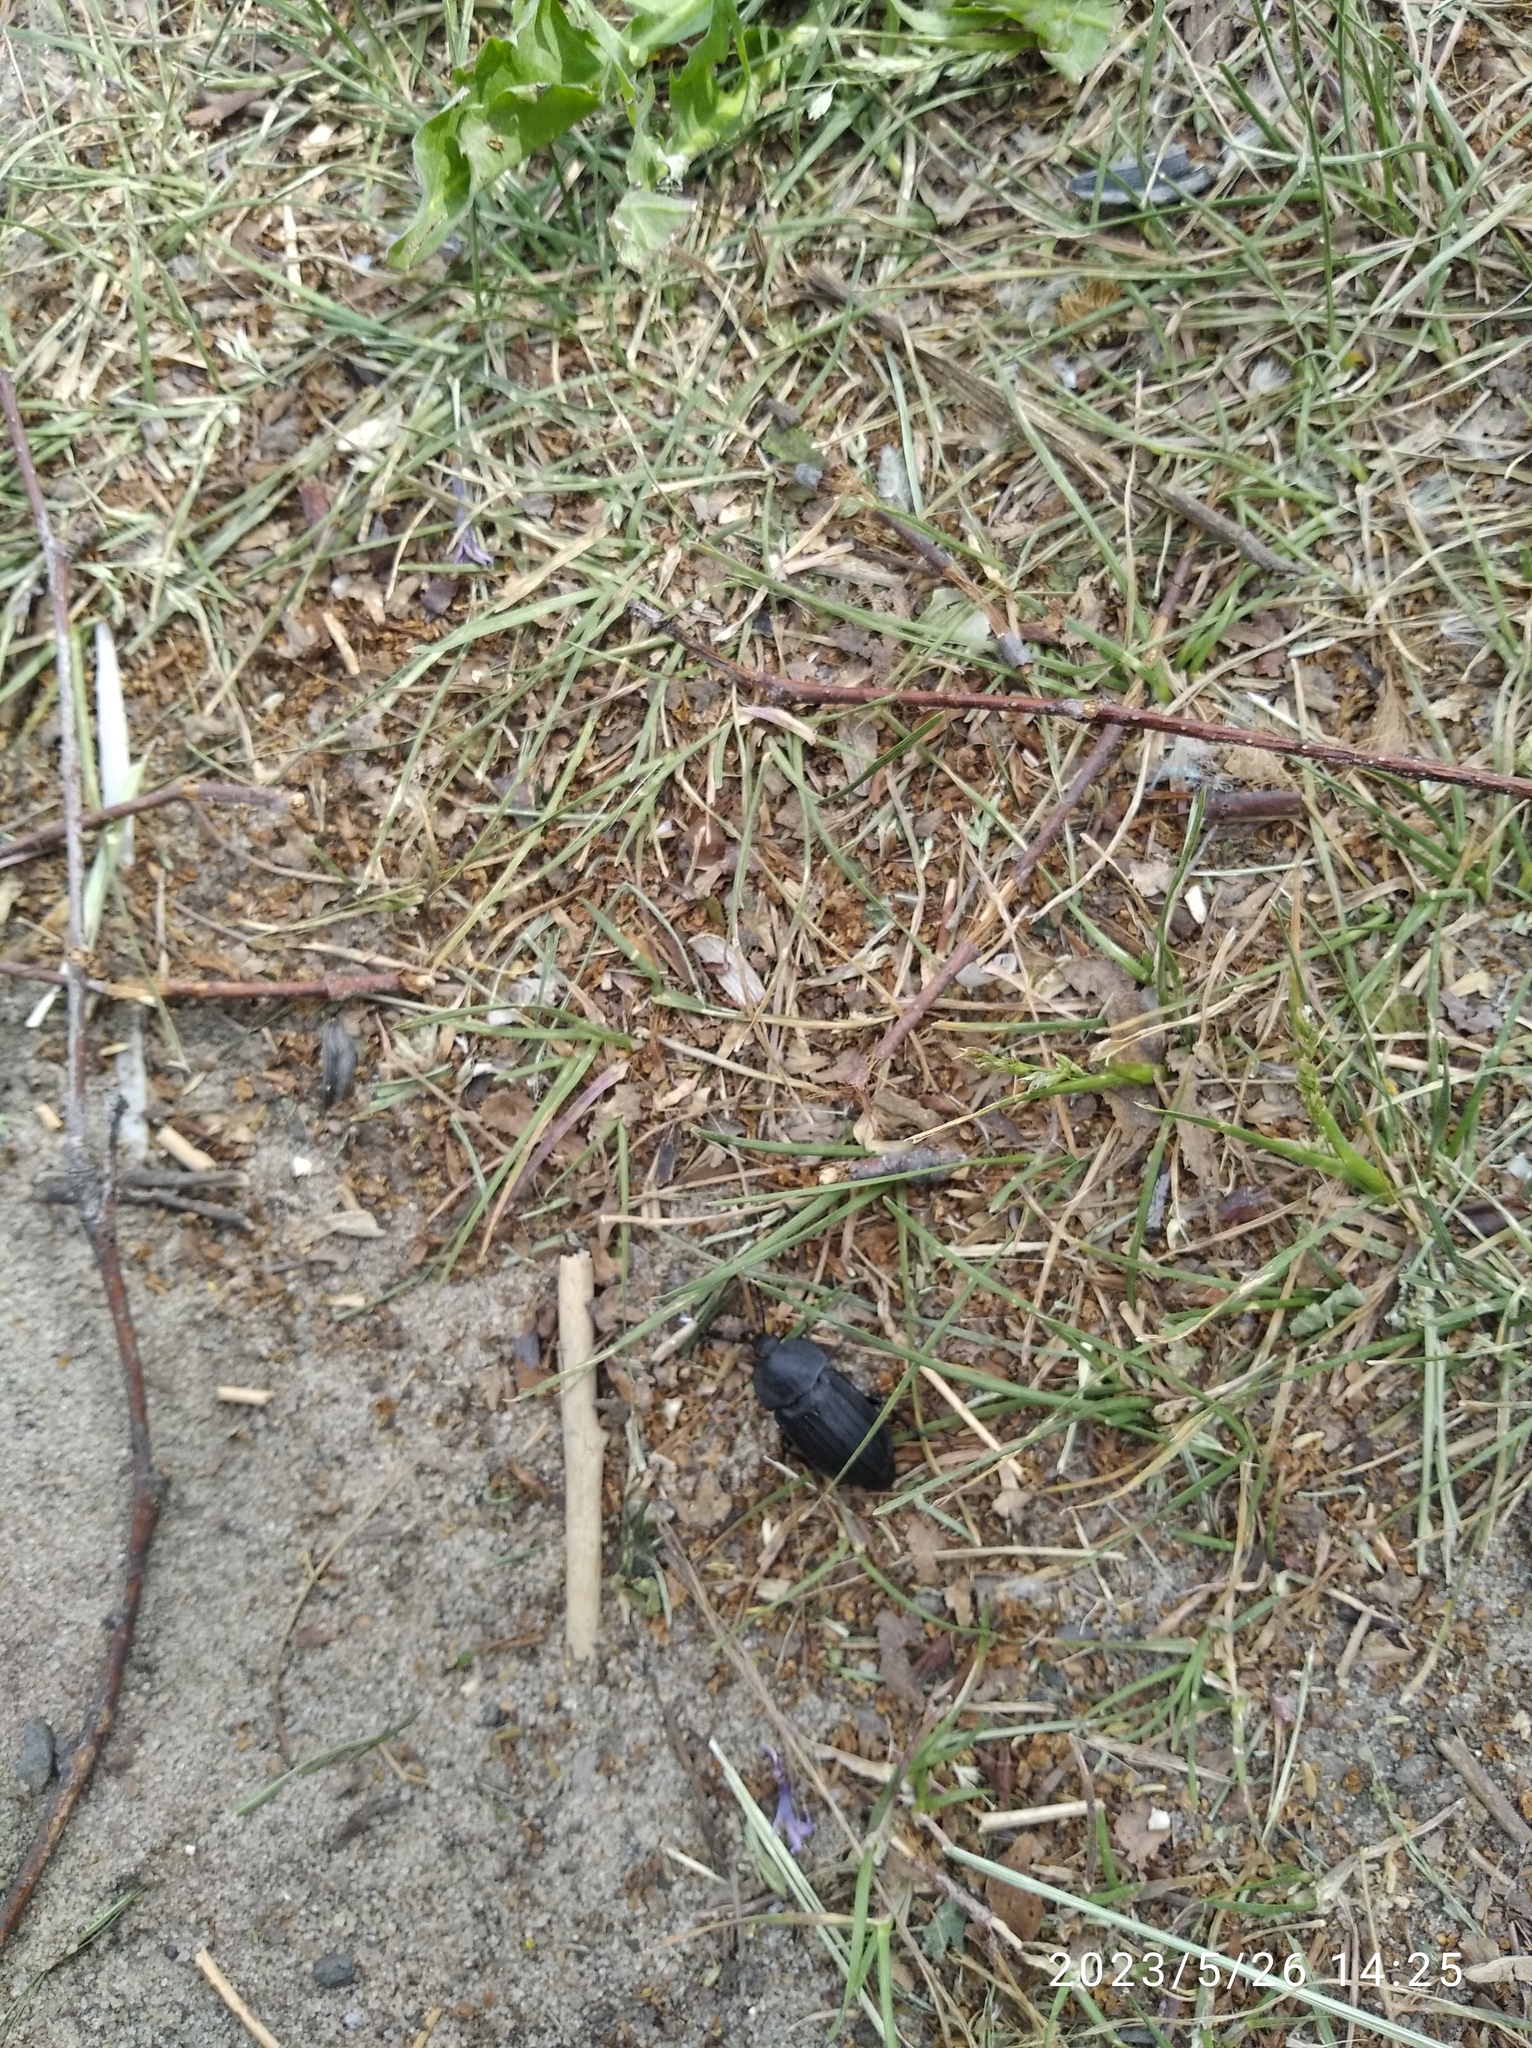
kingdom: Animalia
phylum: Arthropoda
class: Insecta
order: Coleoptera
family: Staphylinidae
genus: Silpha
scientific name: Silpha tristis
